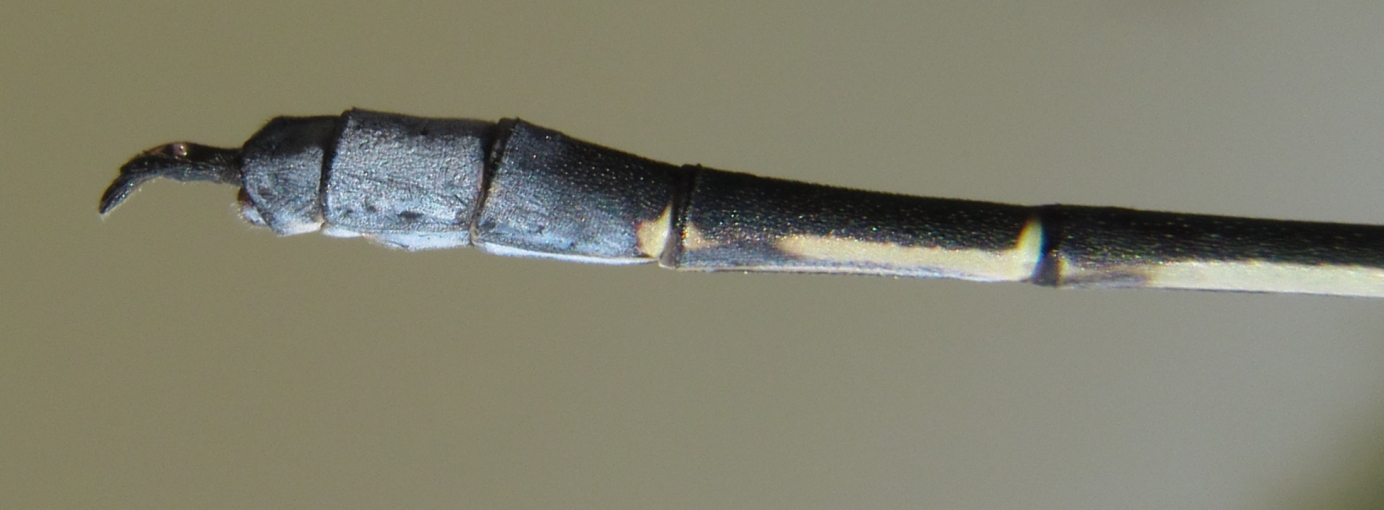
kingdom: Animalia
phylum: Arthropoda
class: Insecta
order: Odonata
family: Lestidae
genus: Lestes
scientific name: Lestes plagiatus
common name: Highland spreadwing
